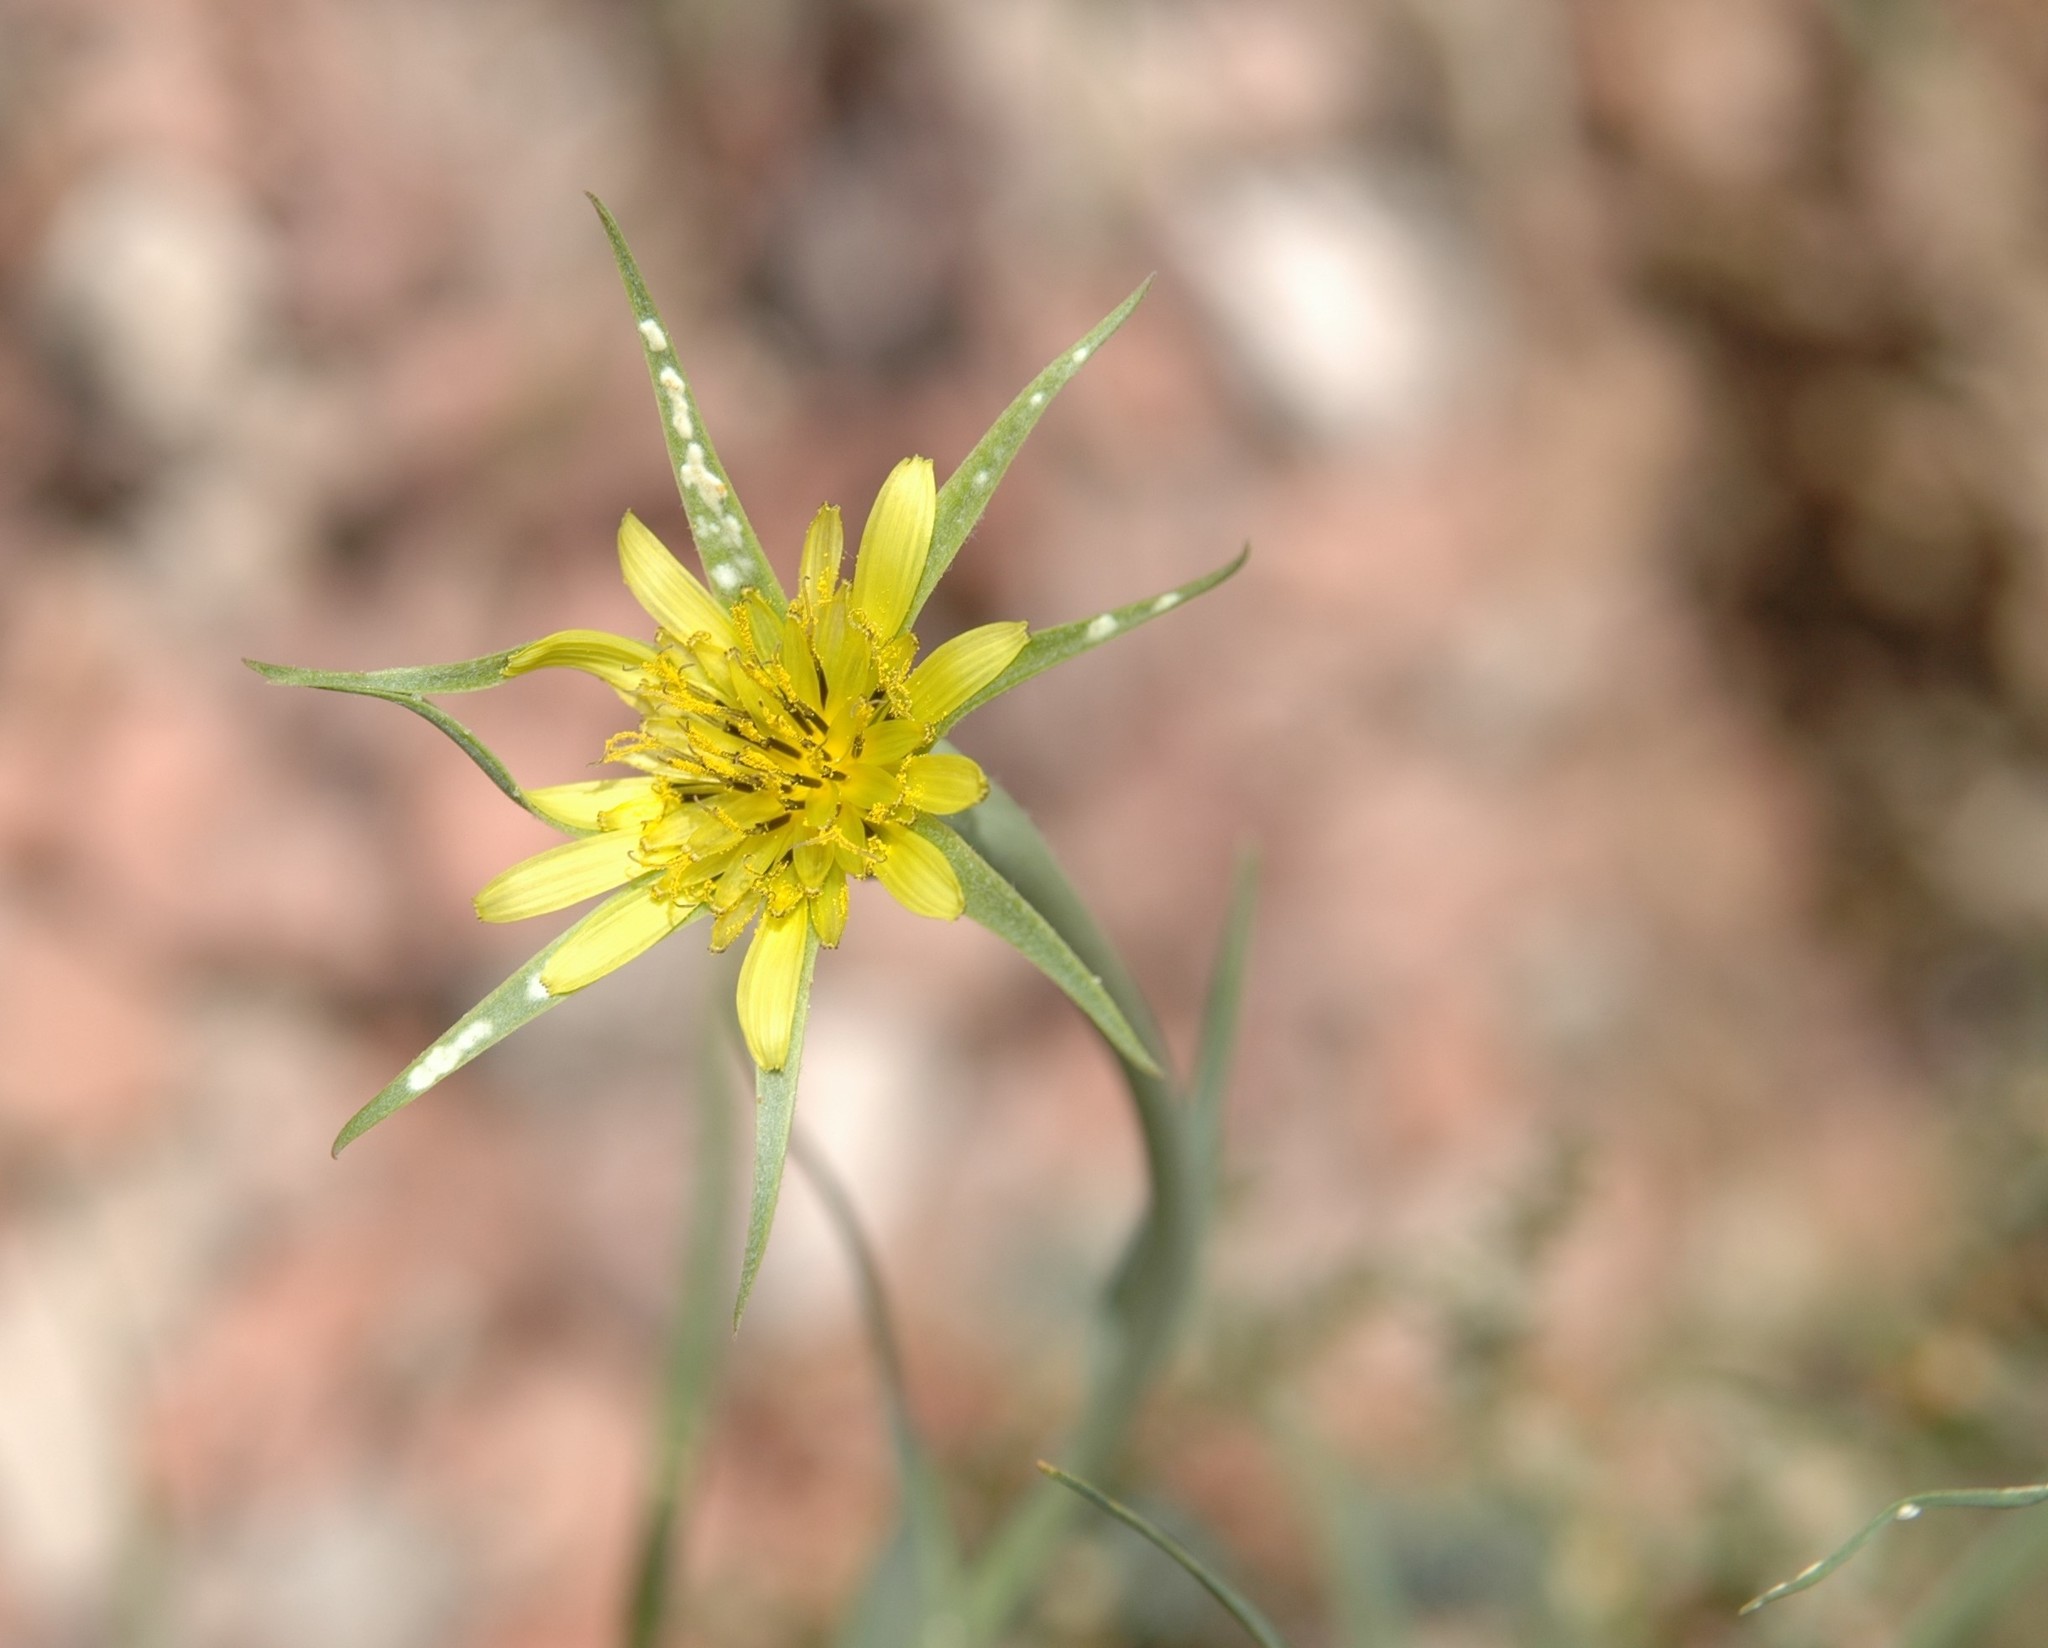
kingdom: Plantae
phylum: Tracheophyta
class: Magnoliopsida
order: Asterales
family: Asteraceae
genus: Tragopogon
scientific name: Tragopogon dubius
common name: Yellow salsify
